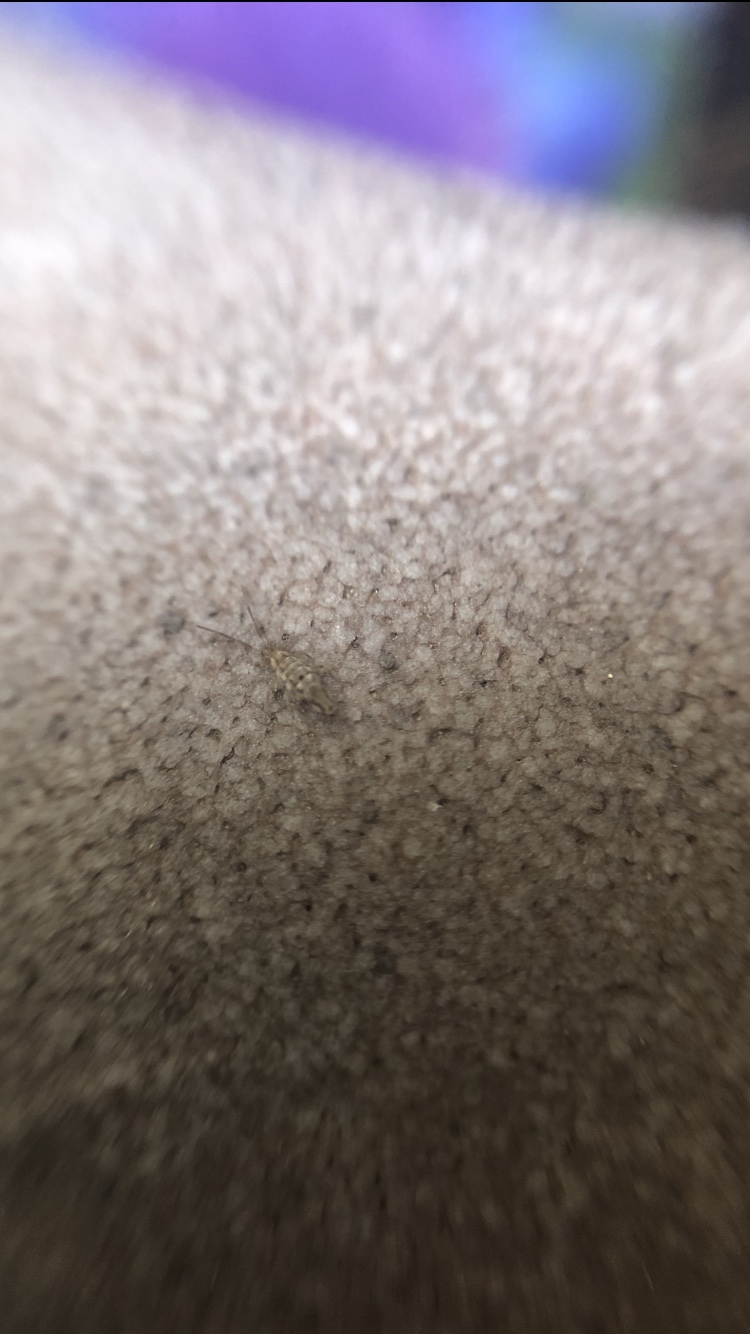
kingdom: Animalia
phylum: Arthropoda
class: Collembola
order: Entomobryomorpha
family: Entomobryidae
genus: Entomobrya
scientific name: Entomobrya intermedia
